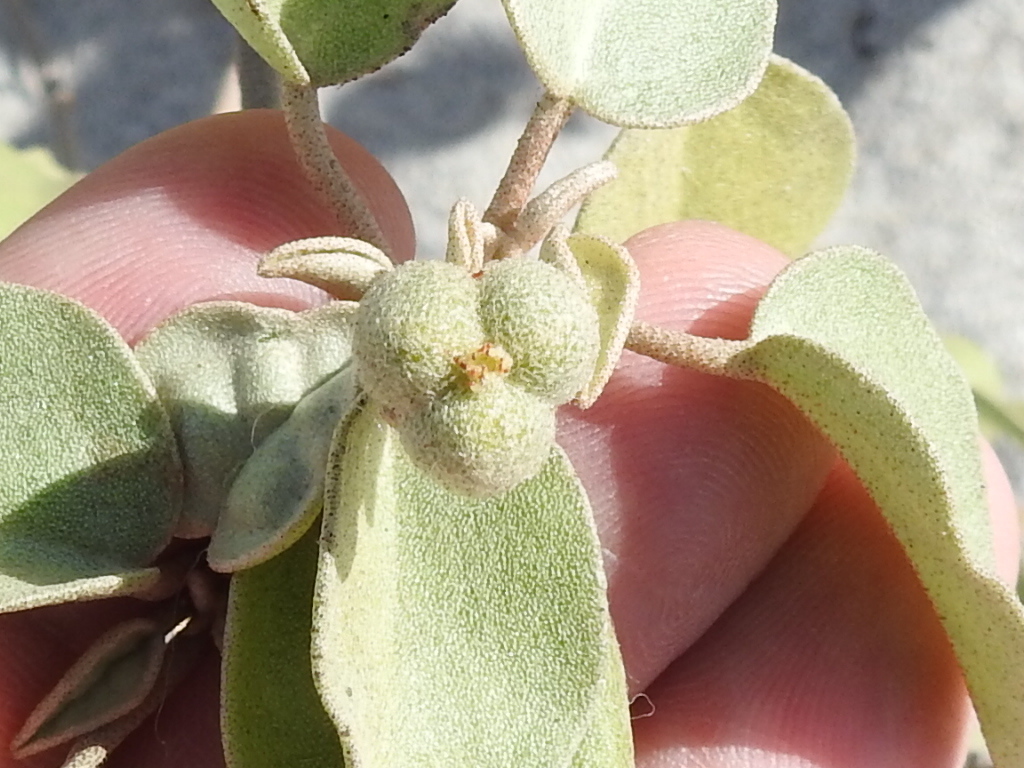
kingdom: Plantae
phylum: Tracheophyta
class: Magnoliopsida
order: Malpighiales
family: Euphorbiaceae
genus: Croton
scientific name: Croton punctatus
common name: Beach-tea
